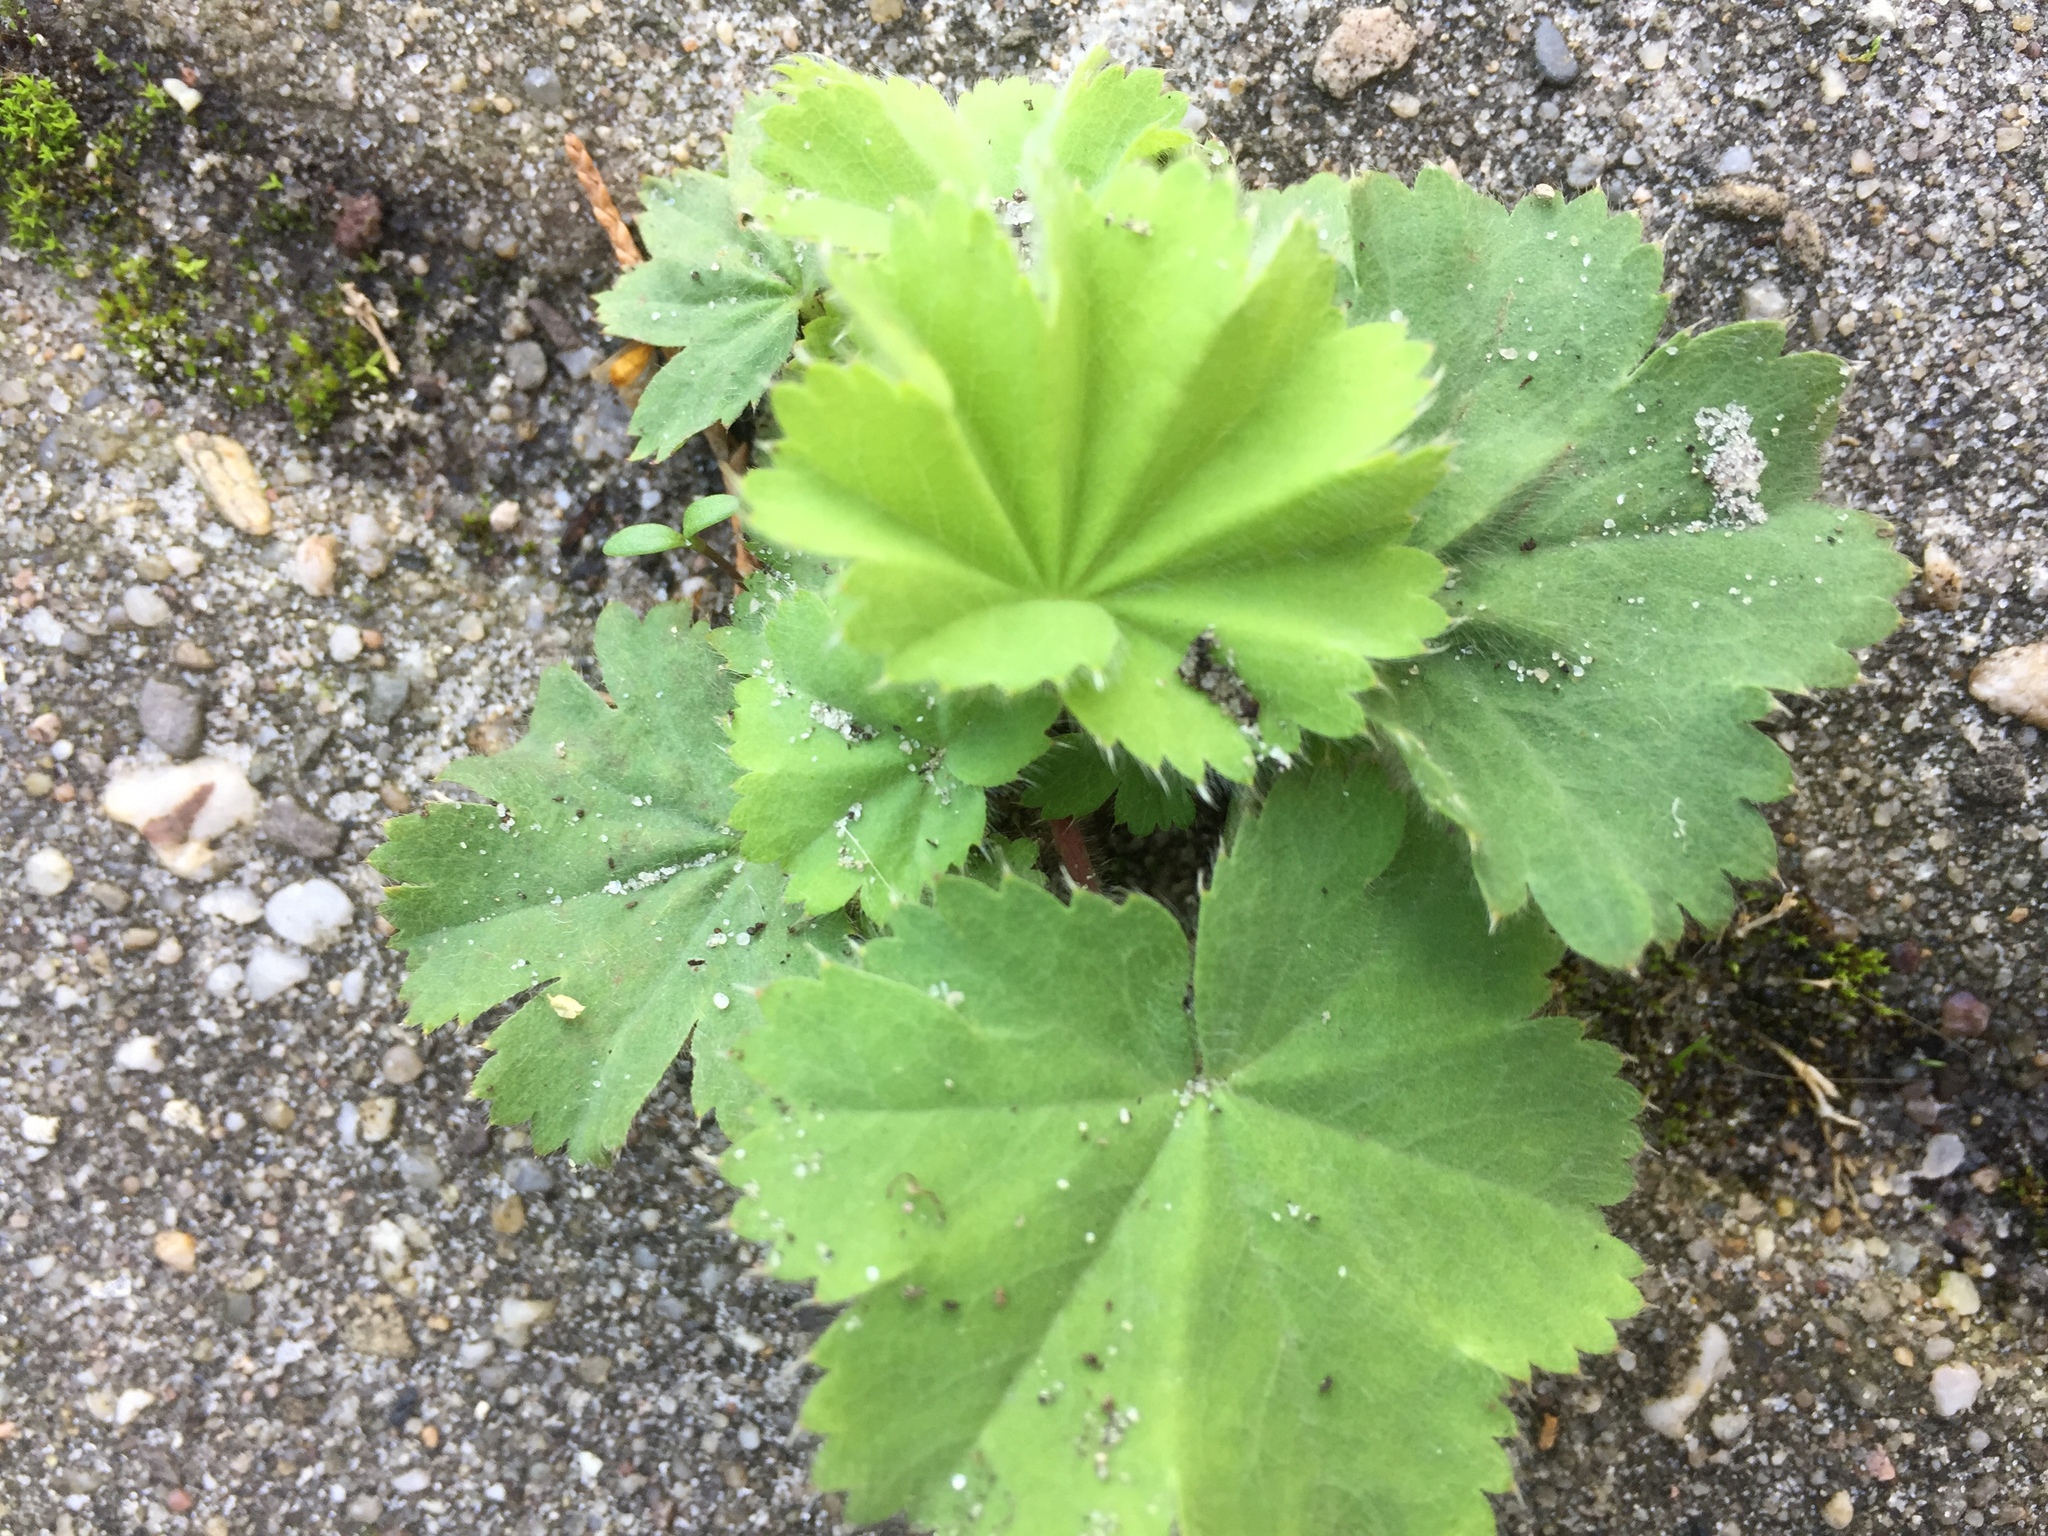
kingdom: Plantae
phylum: Tracheophyta
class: Magnoliopsida
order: Rosales
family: Rosaceae
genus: Alchemilla
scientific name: Alchemilla mollis
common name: Lady's-mantle
